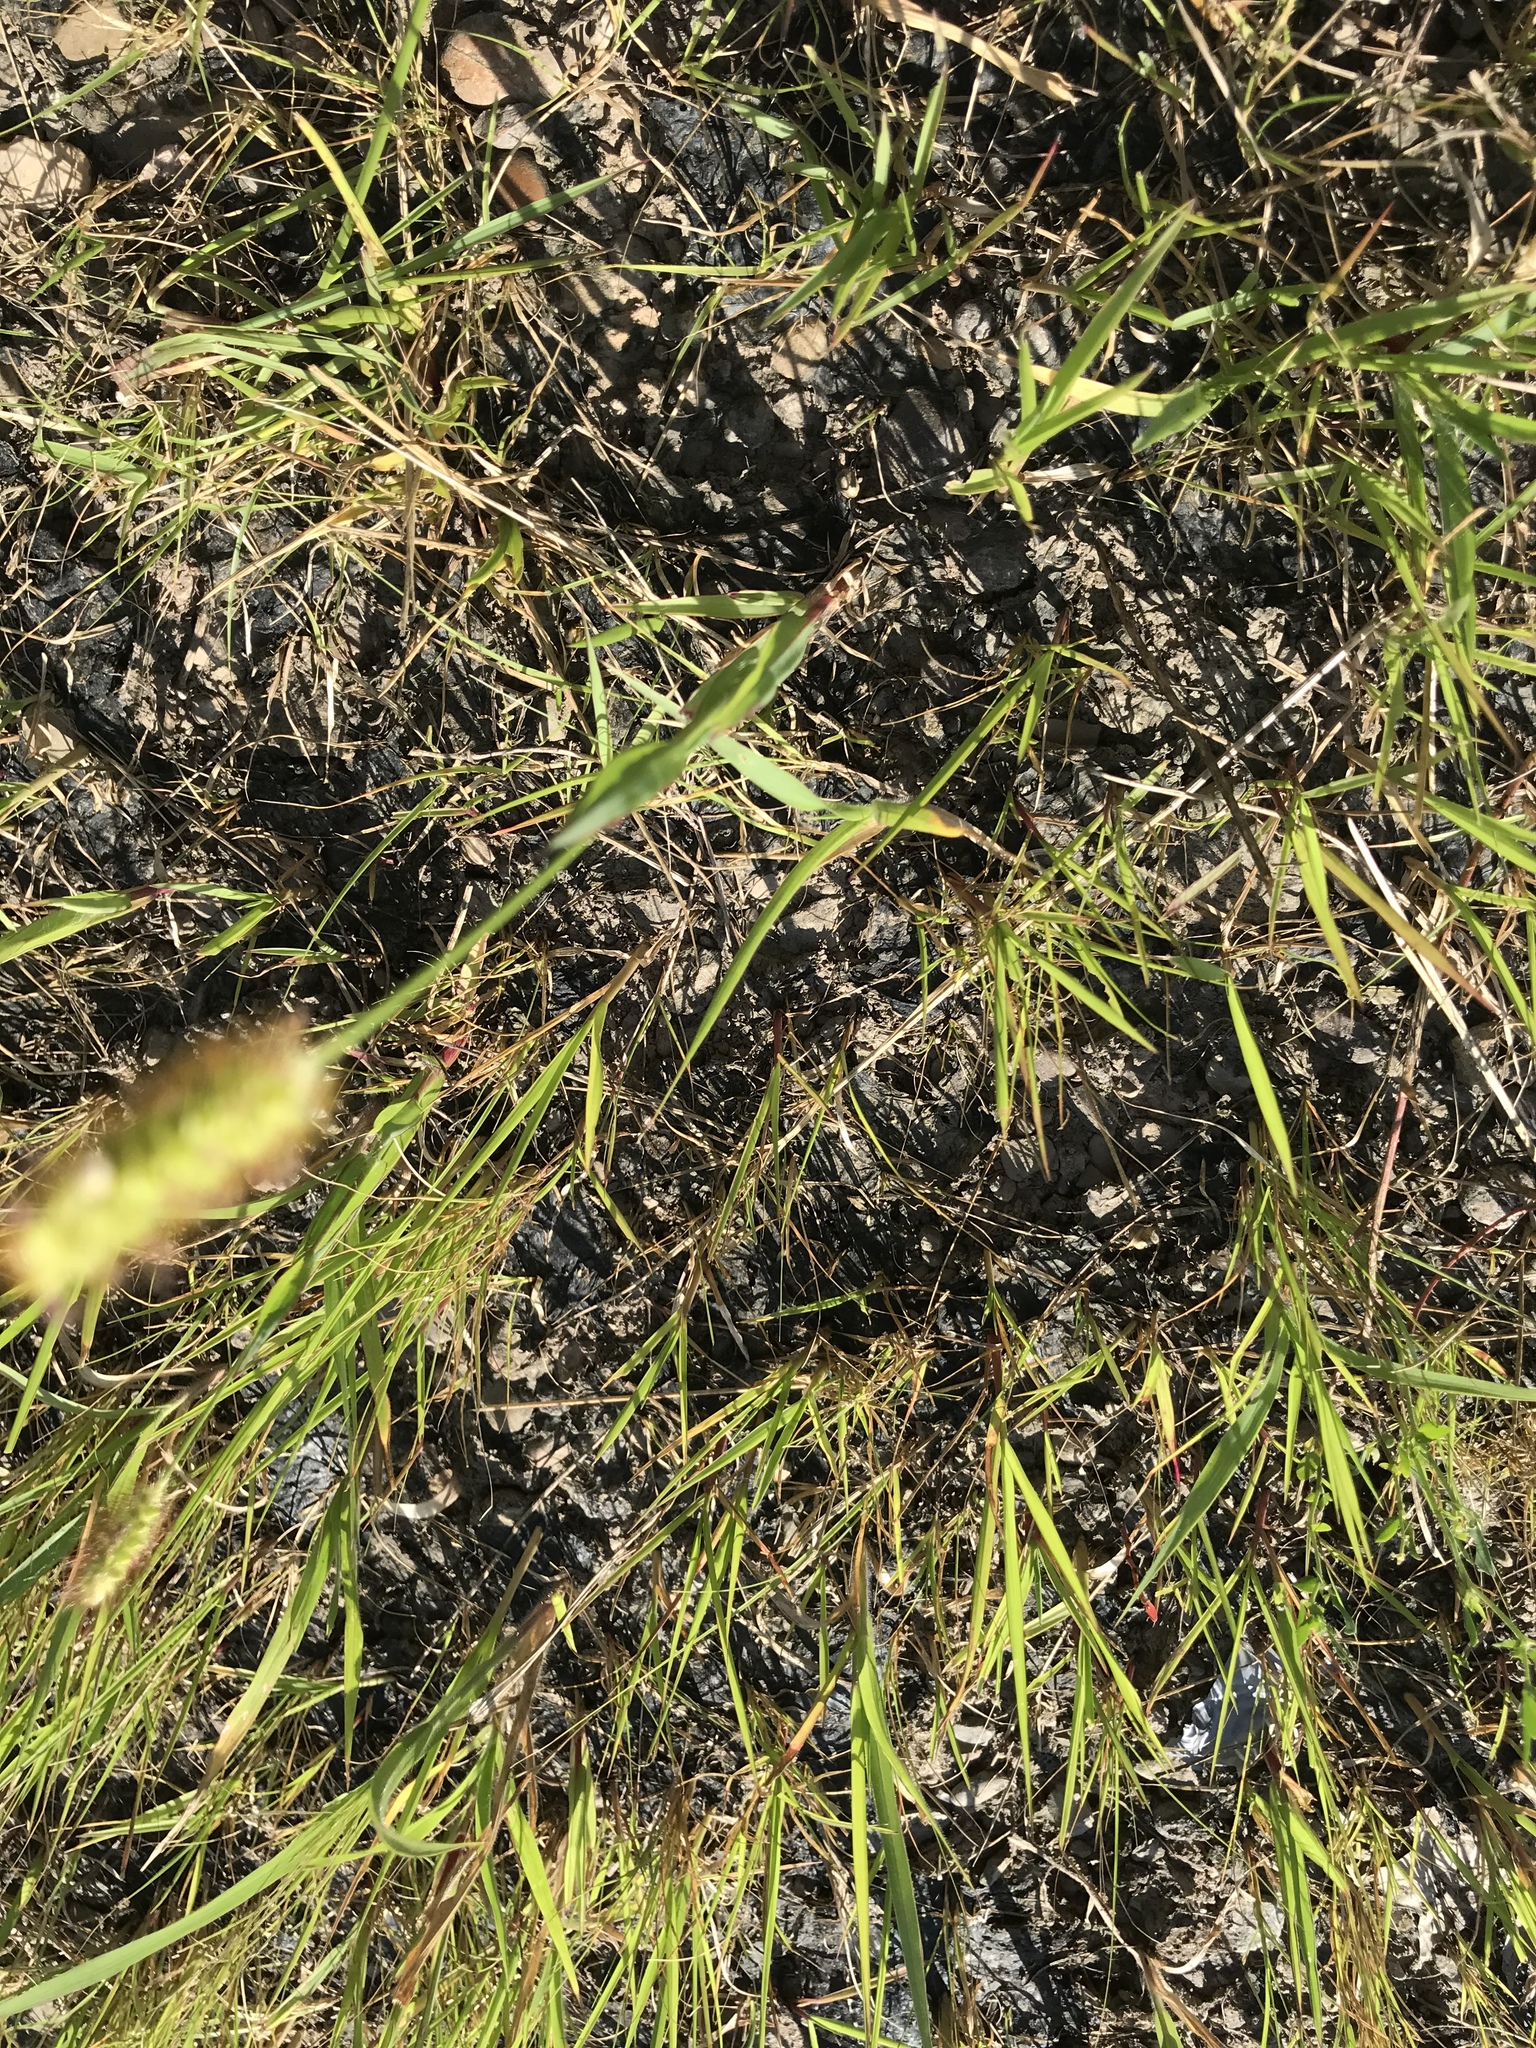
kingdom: Plantae
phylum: Tracheophyta
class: Liliopsida
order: Poales
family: Poaceae
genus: Setaria
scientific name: Setaria pumila
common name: Yellow bristle-grass
